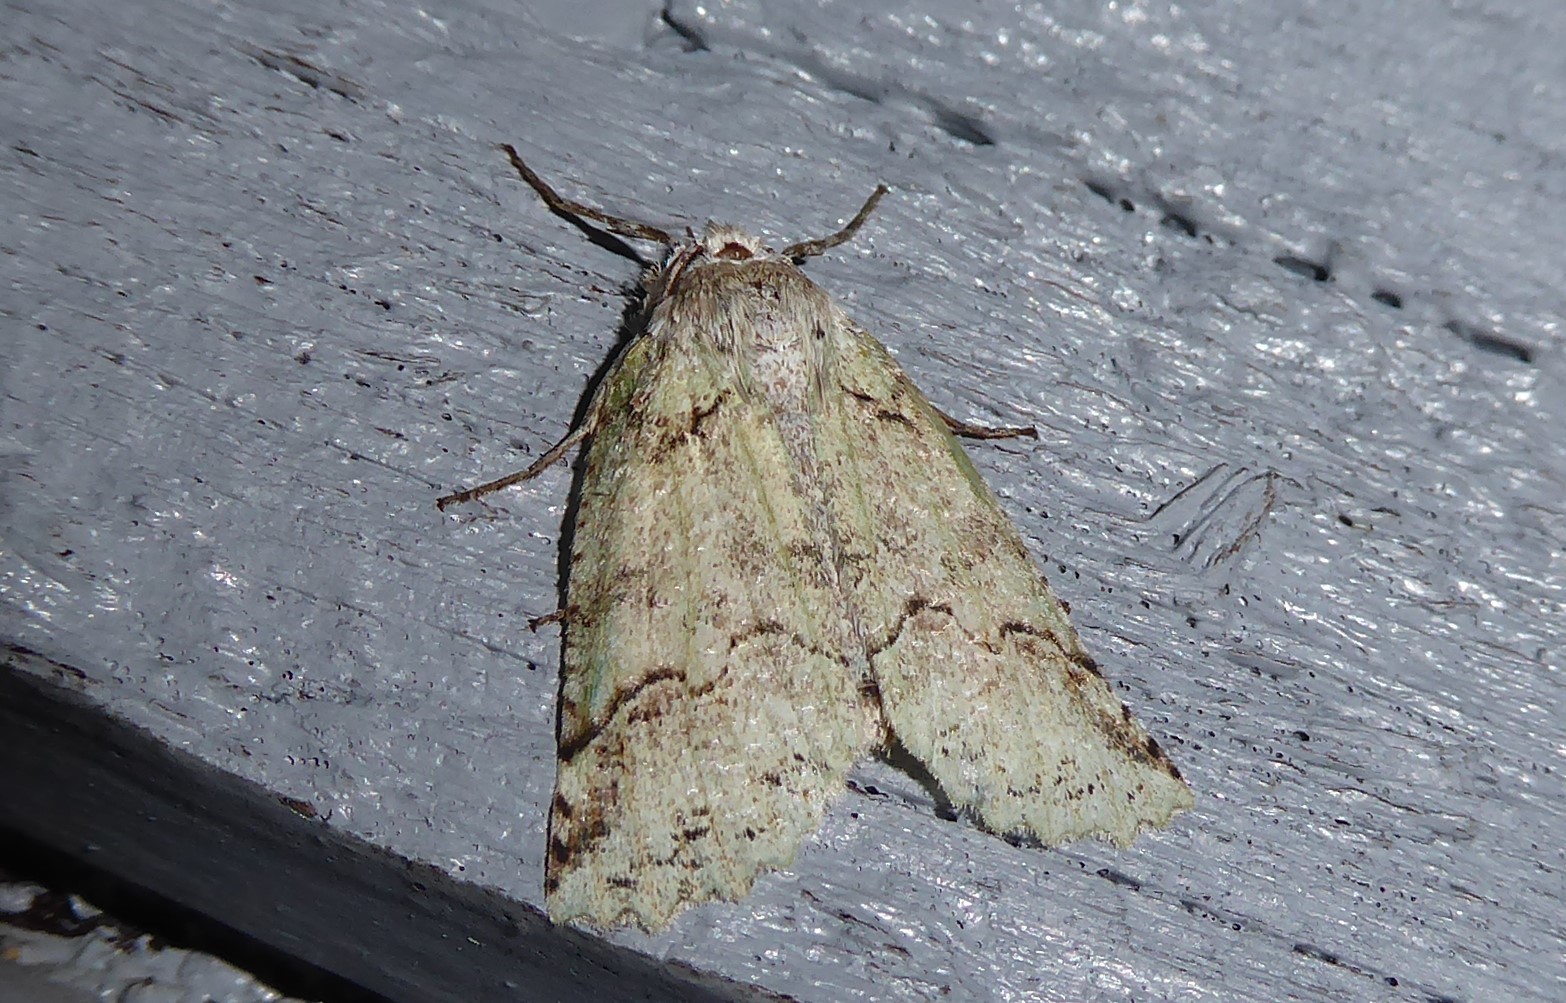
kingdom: Animalia
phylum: Arthropoda
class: Insecta
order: Lepidoptera
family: Geometridae
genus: Declana
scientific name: Declana floccosa
